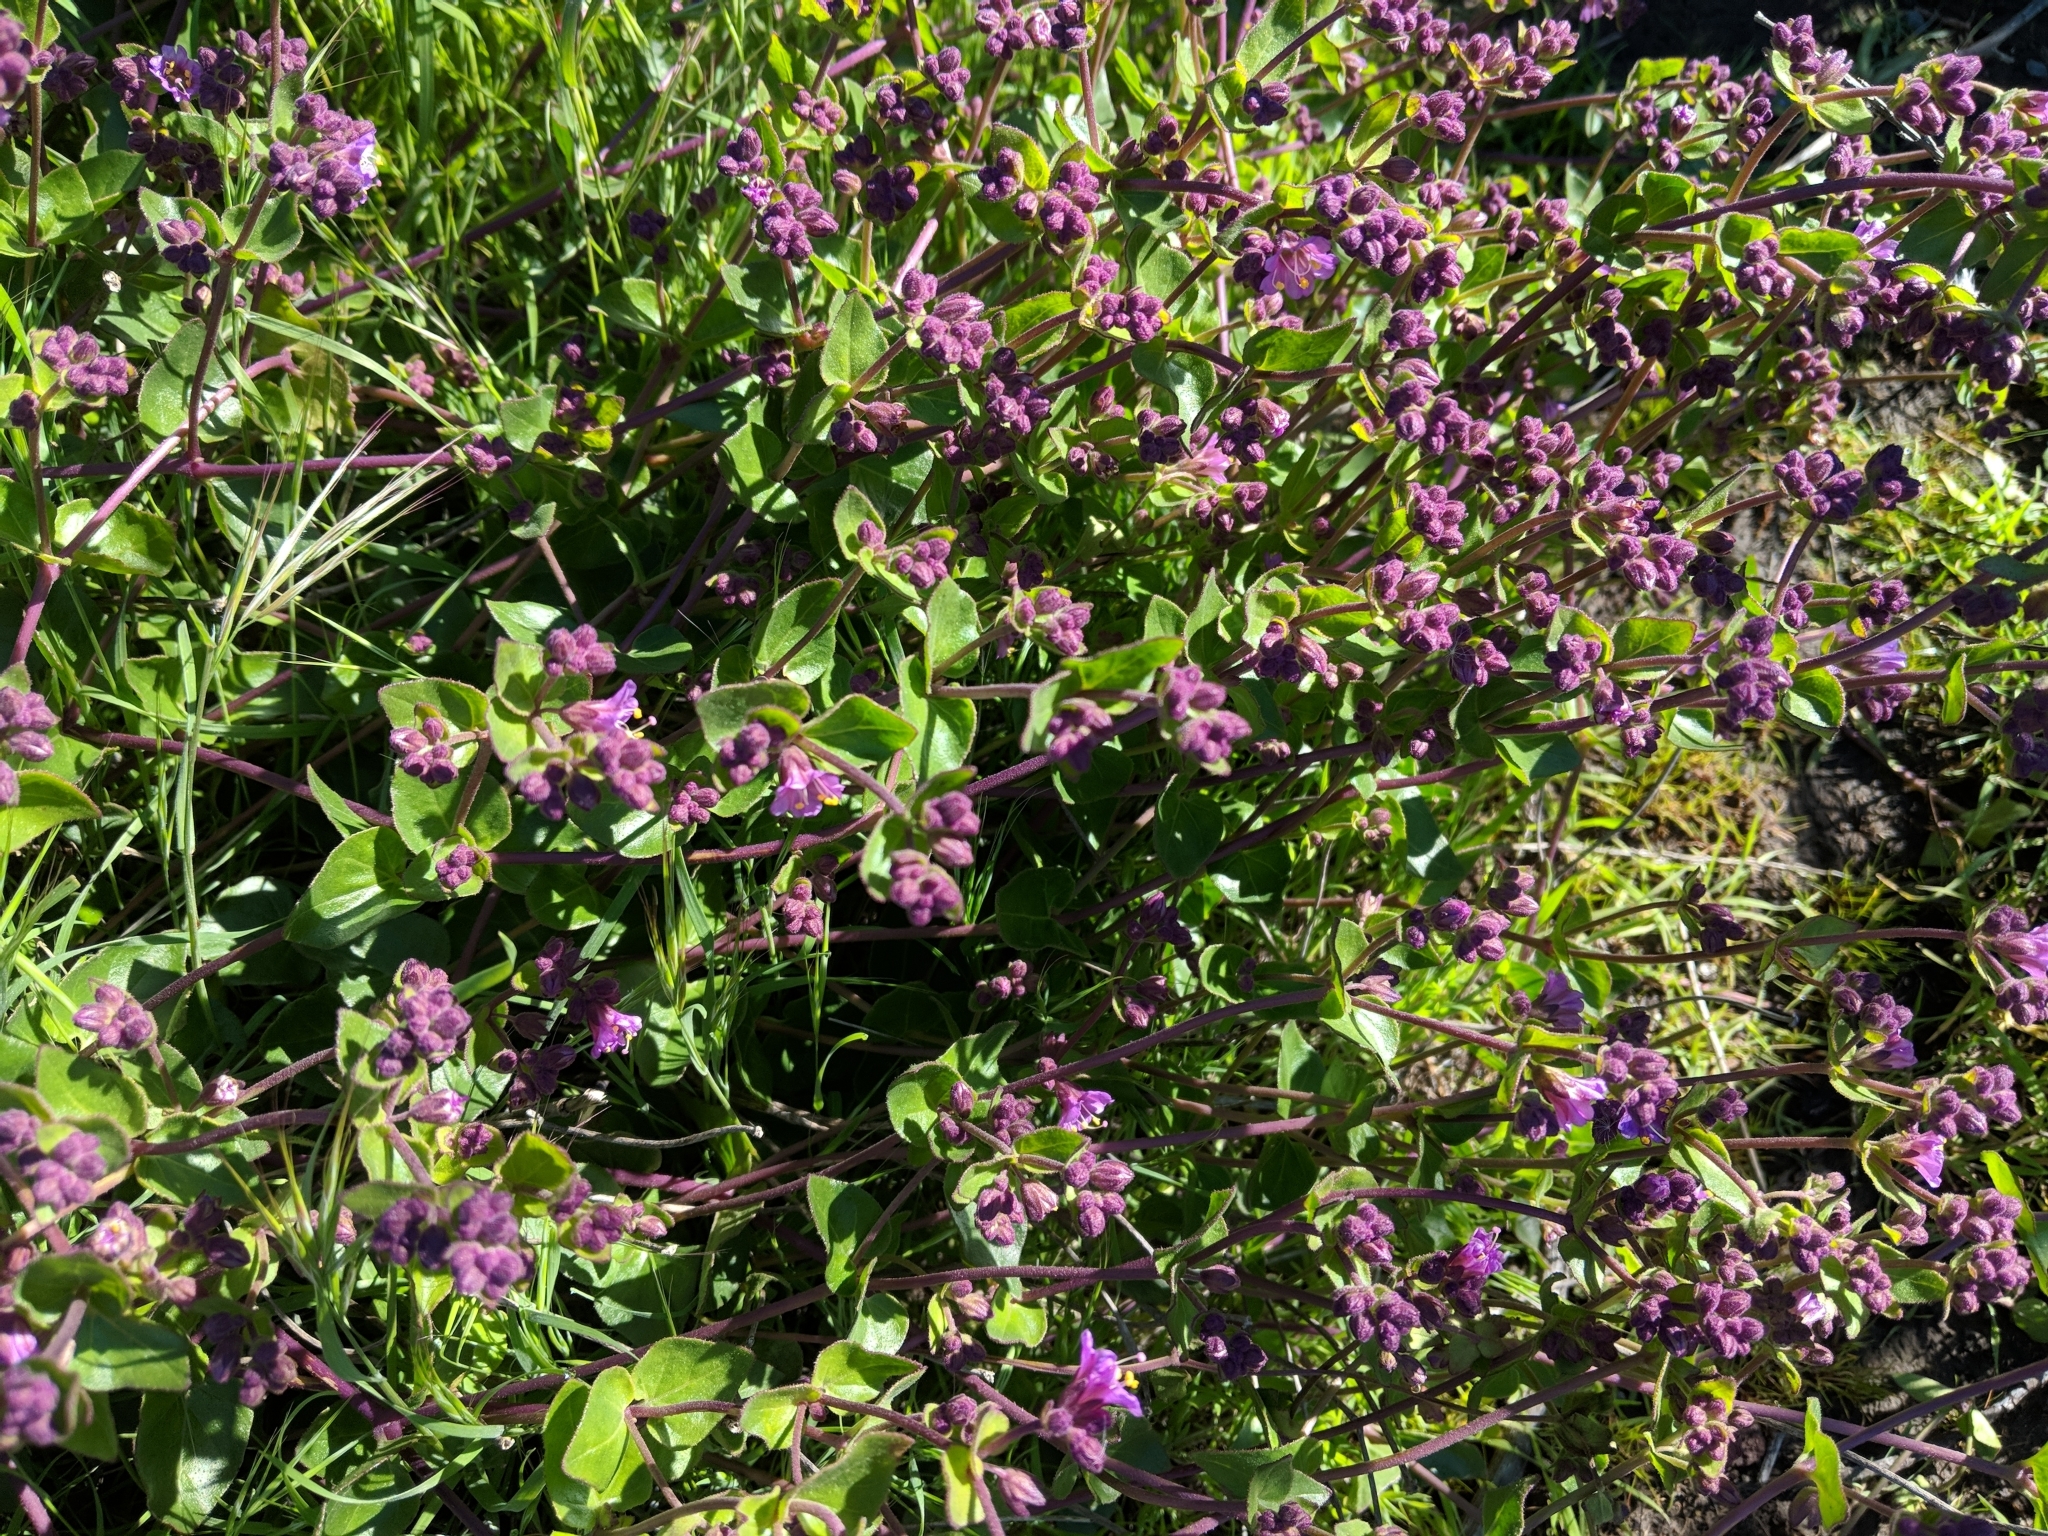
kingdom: Plantae
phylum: Tracheophyta
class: Magnoliopsida
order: Caryophyllales
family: Nyctaginaceae
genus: Mirabilis
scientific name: Mirabilis laevis
